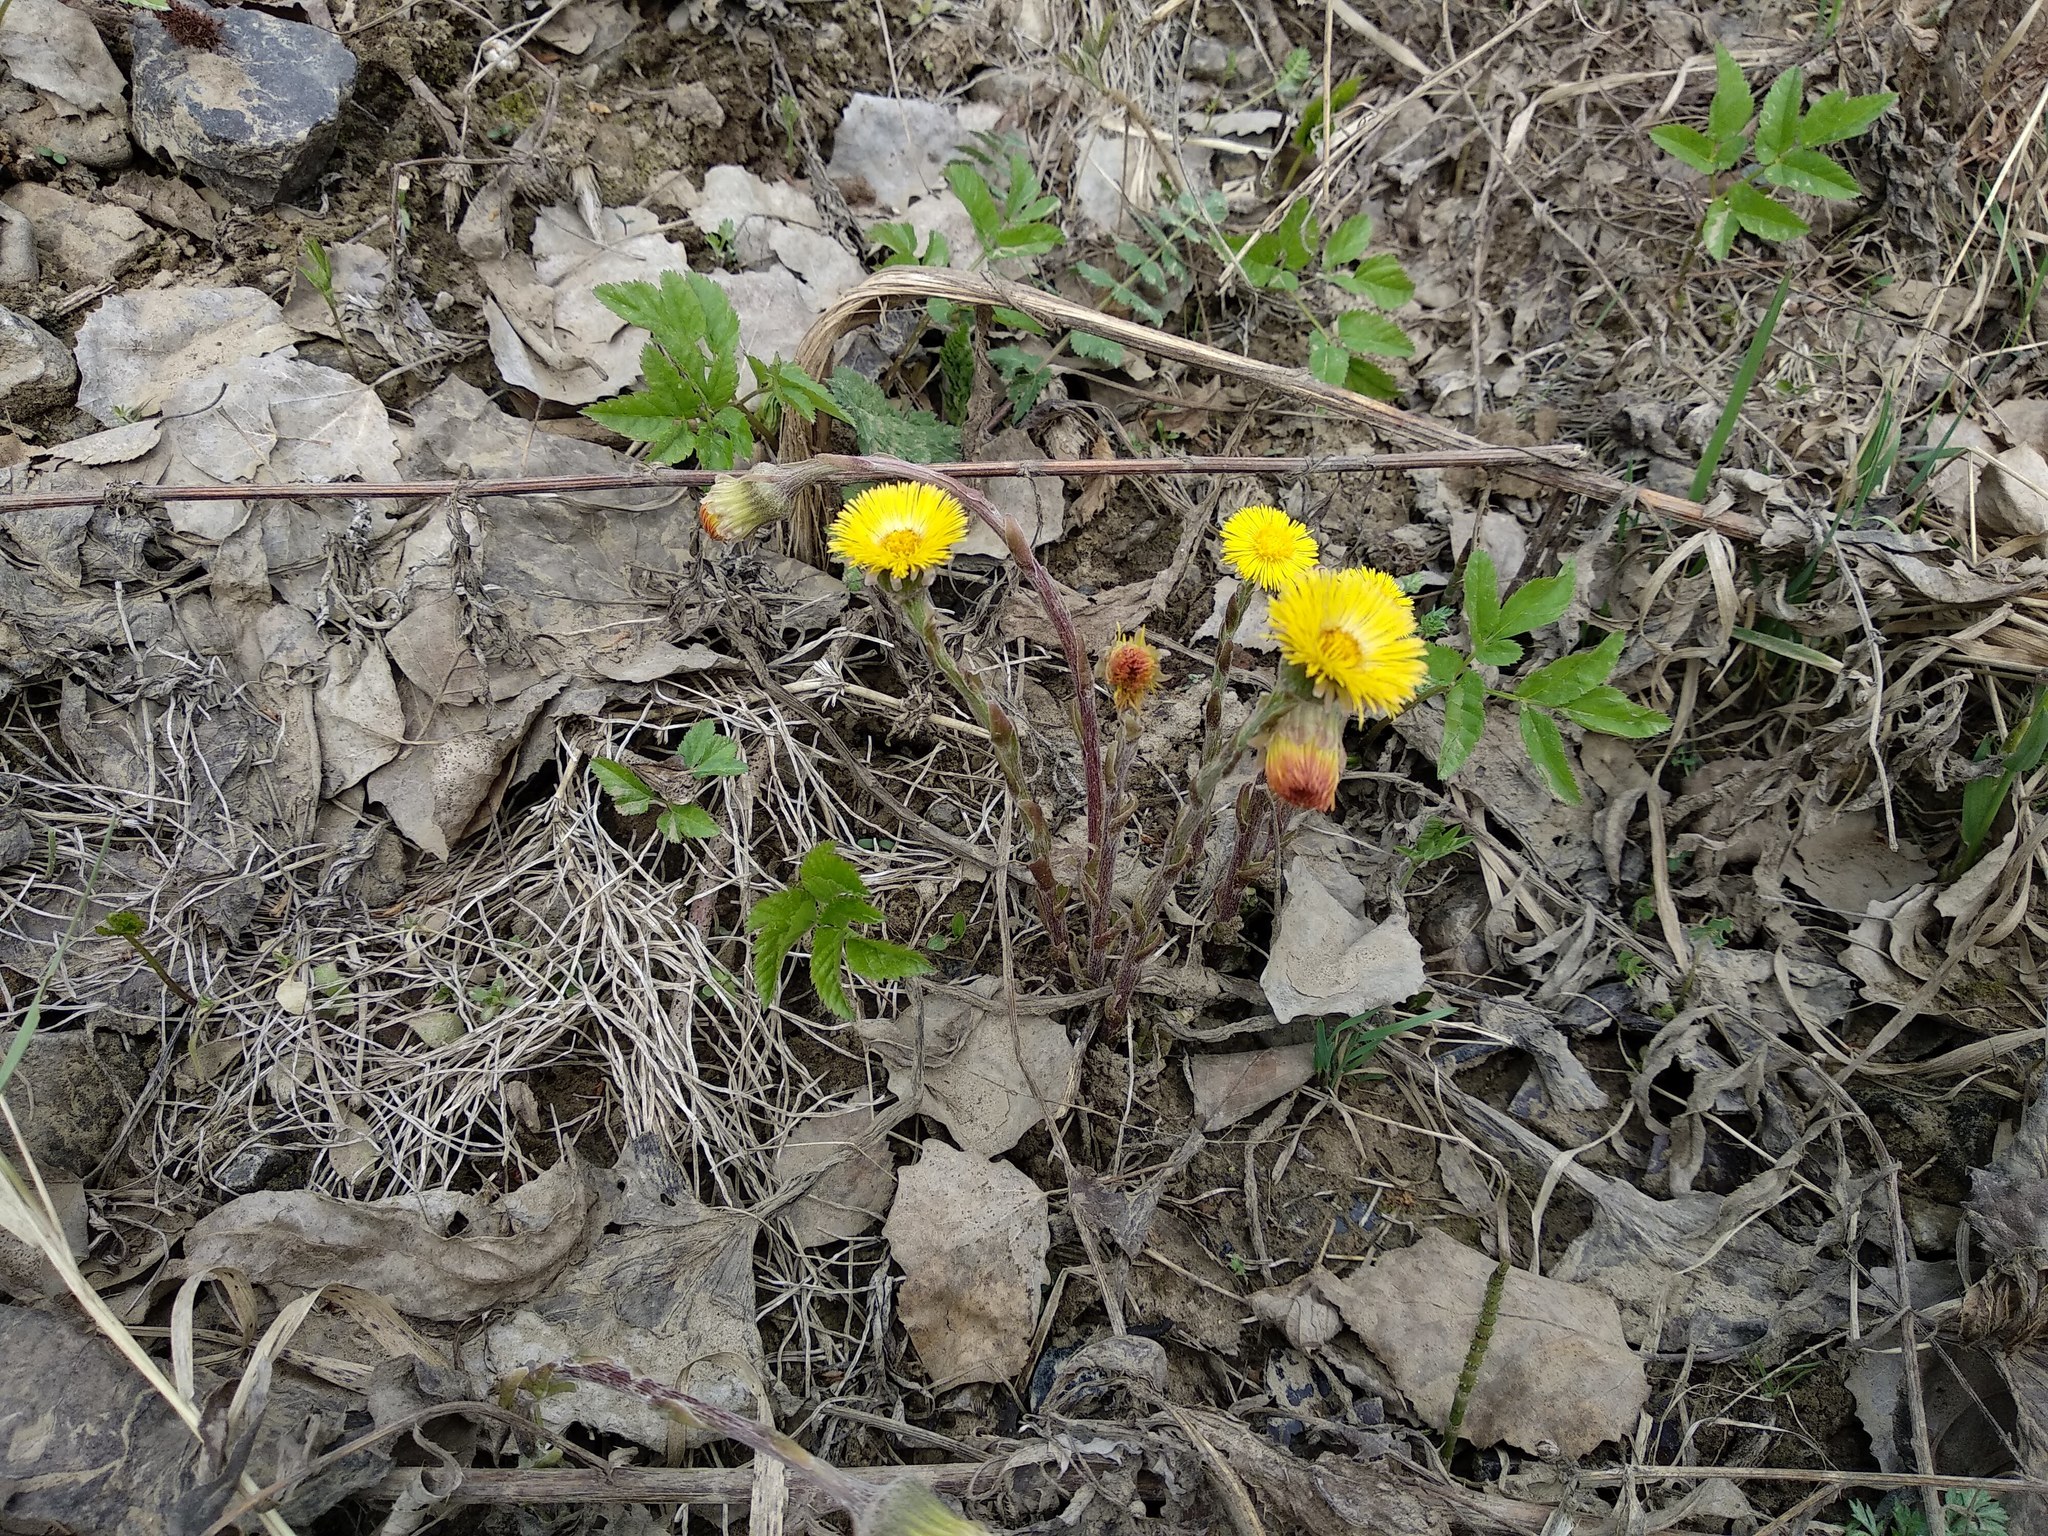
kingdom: Plantae
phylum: Tracheophyta
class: Magnoliopsida
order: Asterales
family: Asteraceae
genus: Tussilago
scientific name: Tussilago farfara
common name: Coltsfoot
